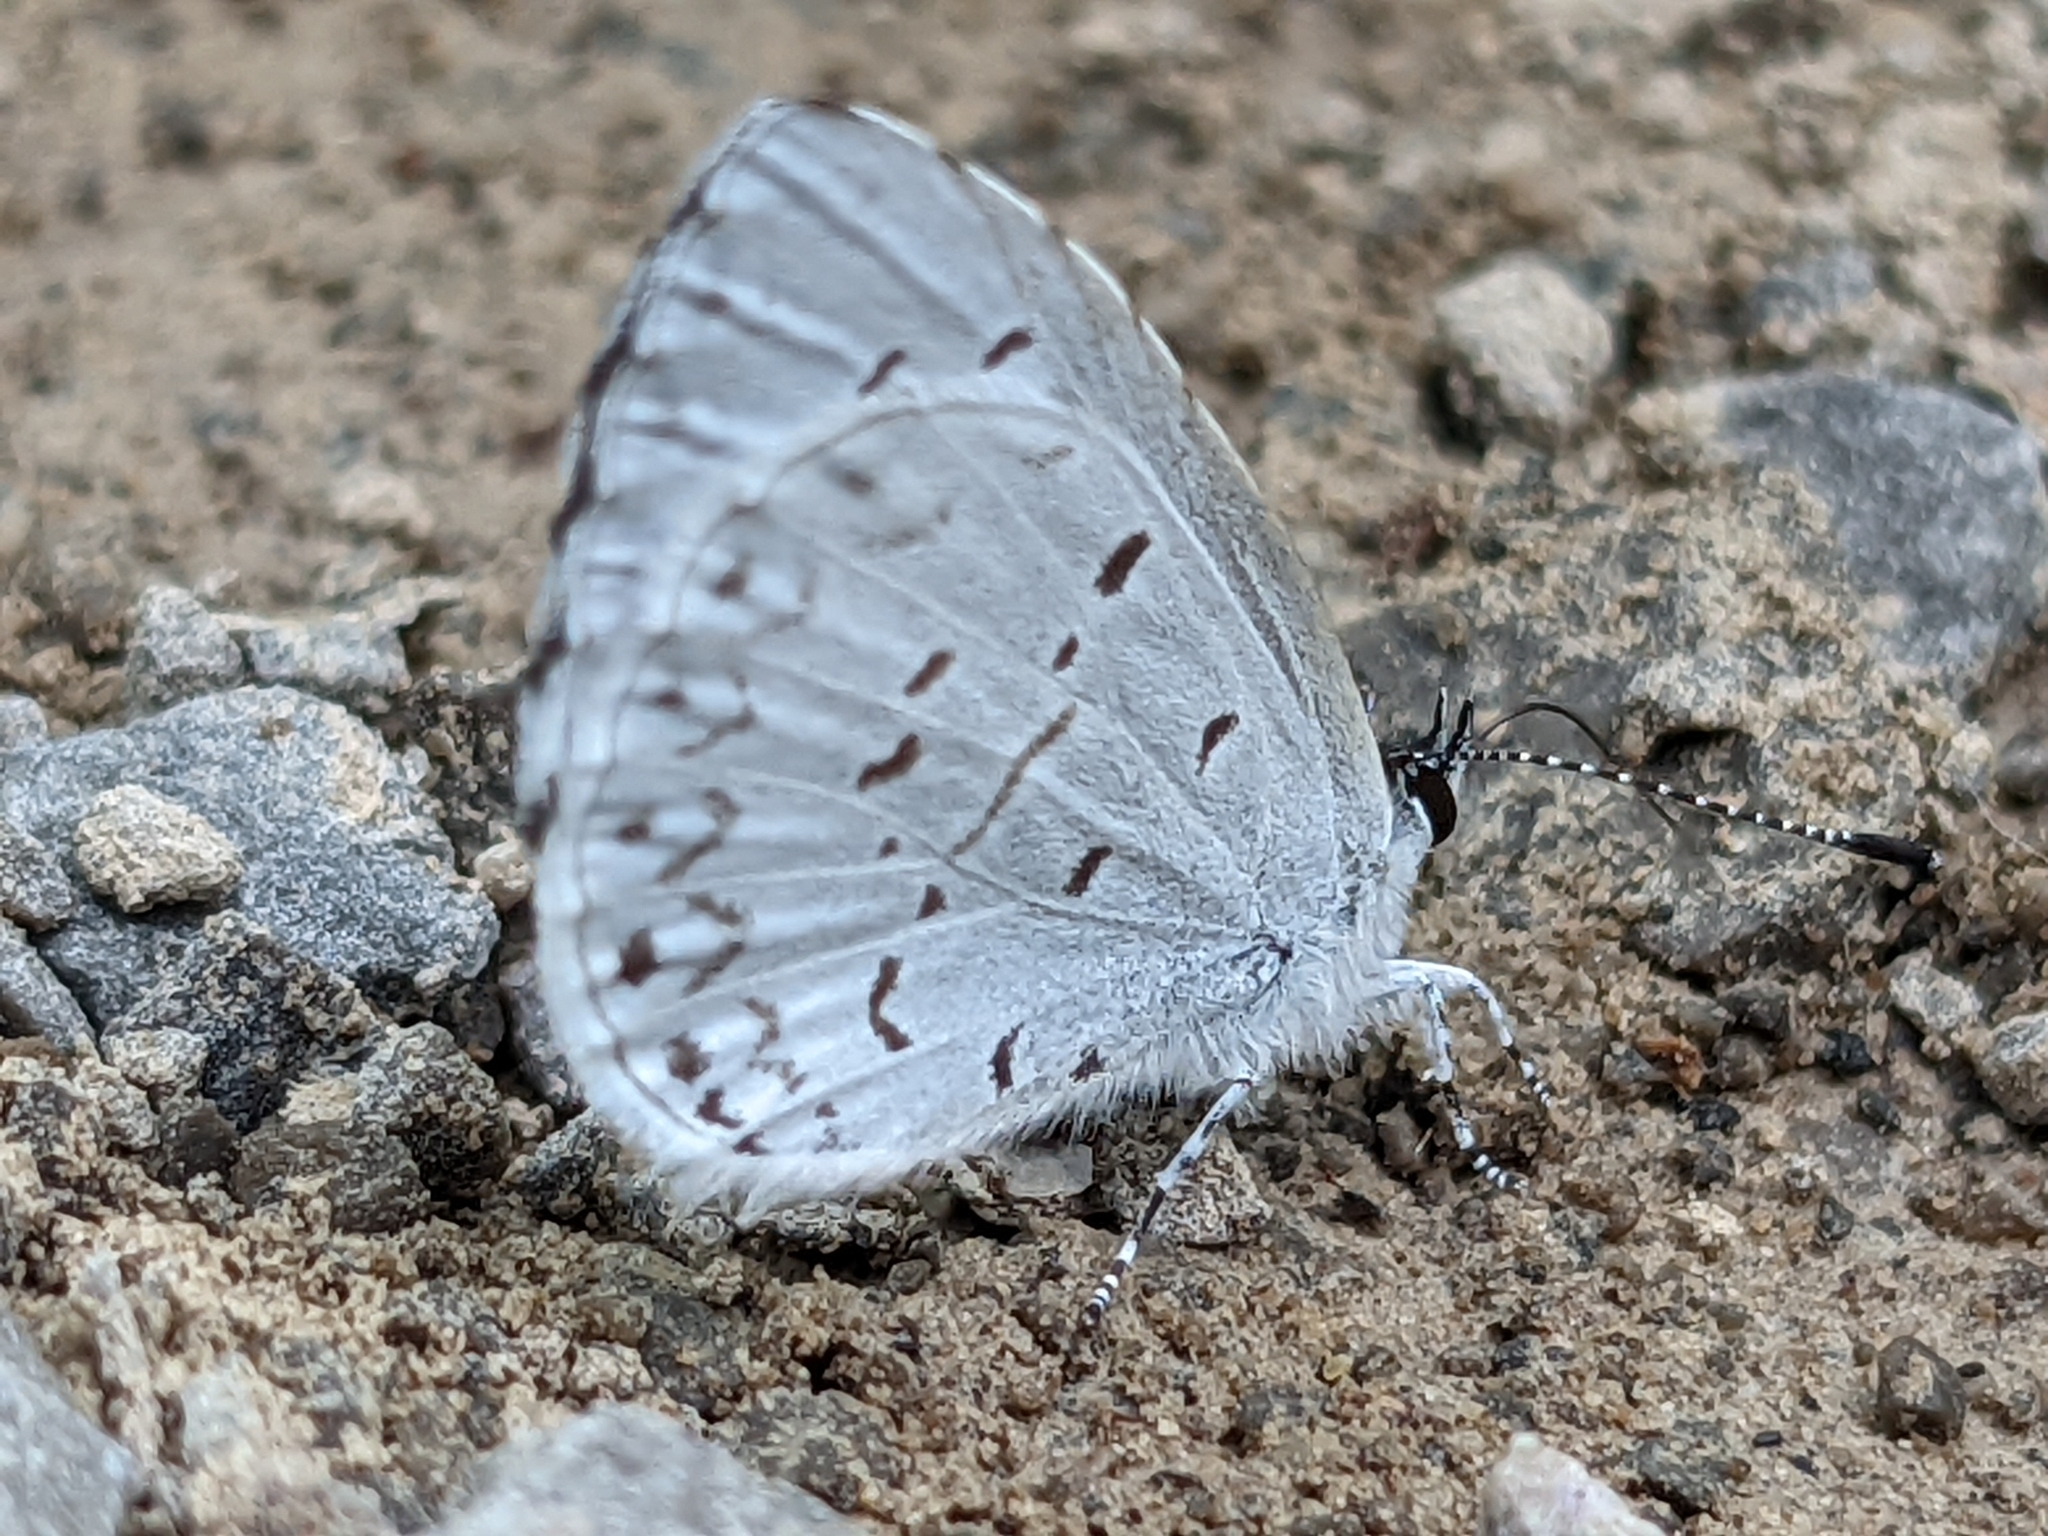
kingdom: Animalia
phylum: Arthropoda
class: Insecta
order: Lepidoptera
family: Lycaenidae
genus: Cyaniris
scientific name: Cyaniris neglecta
